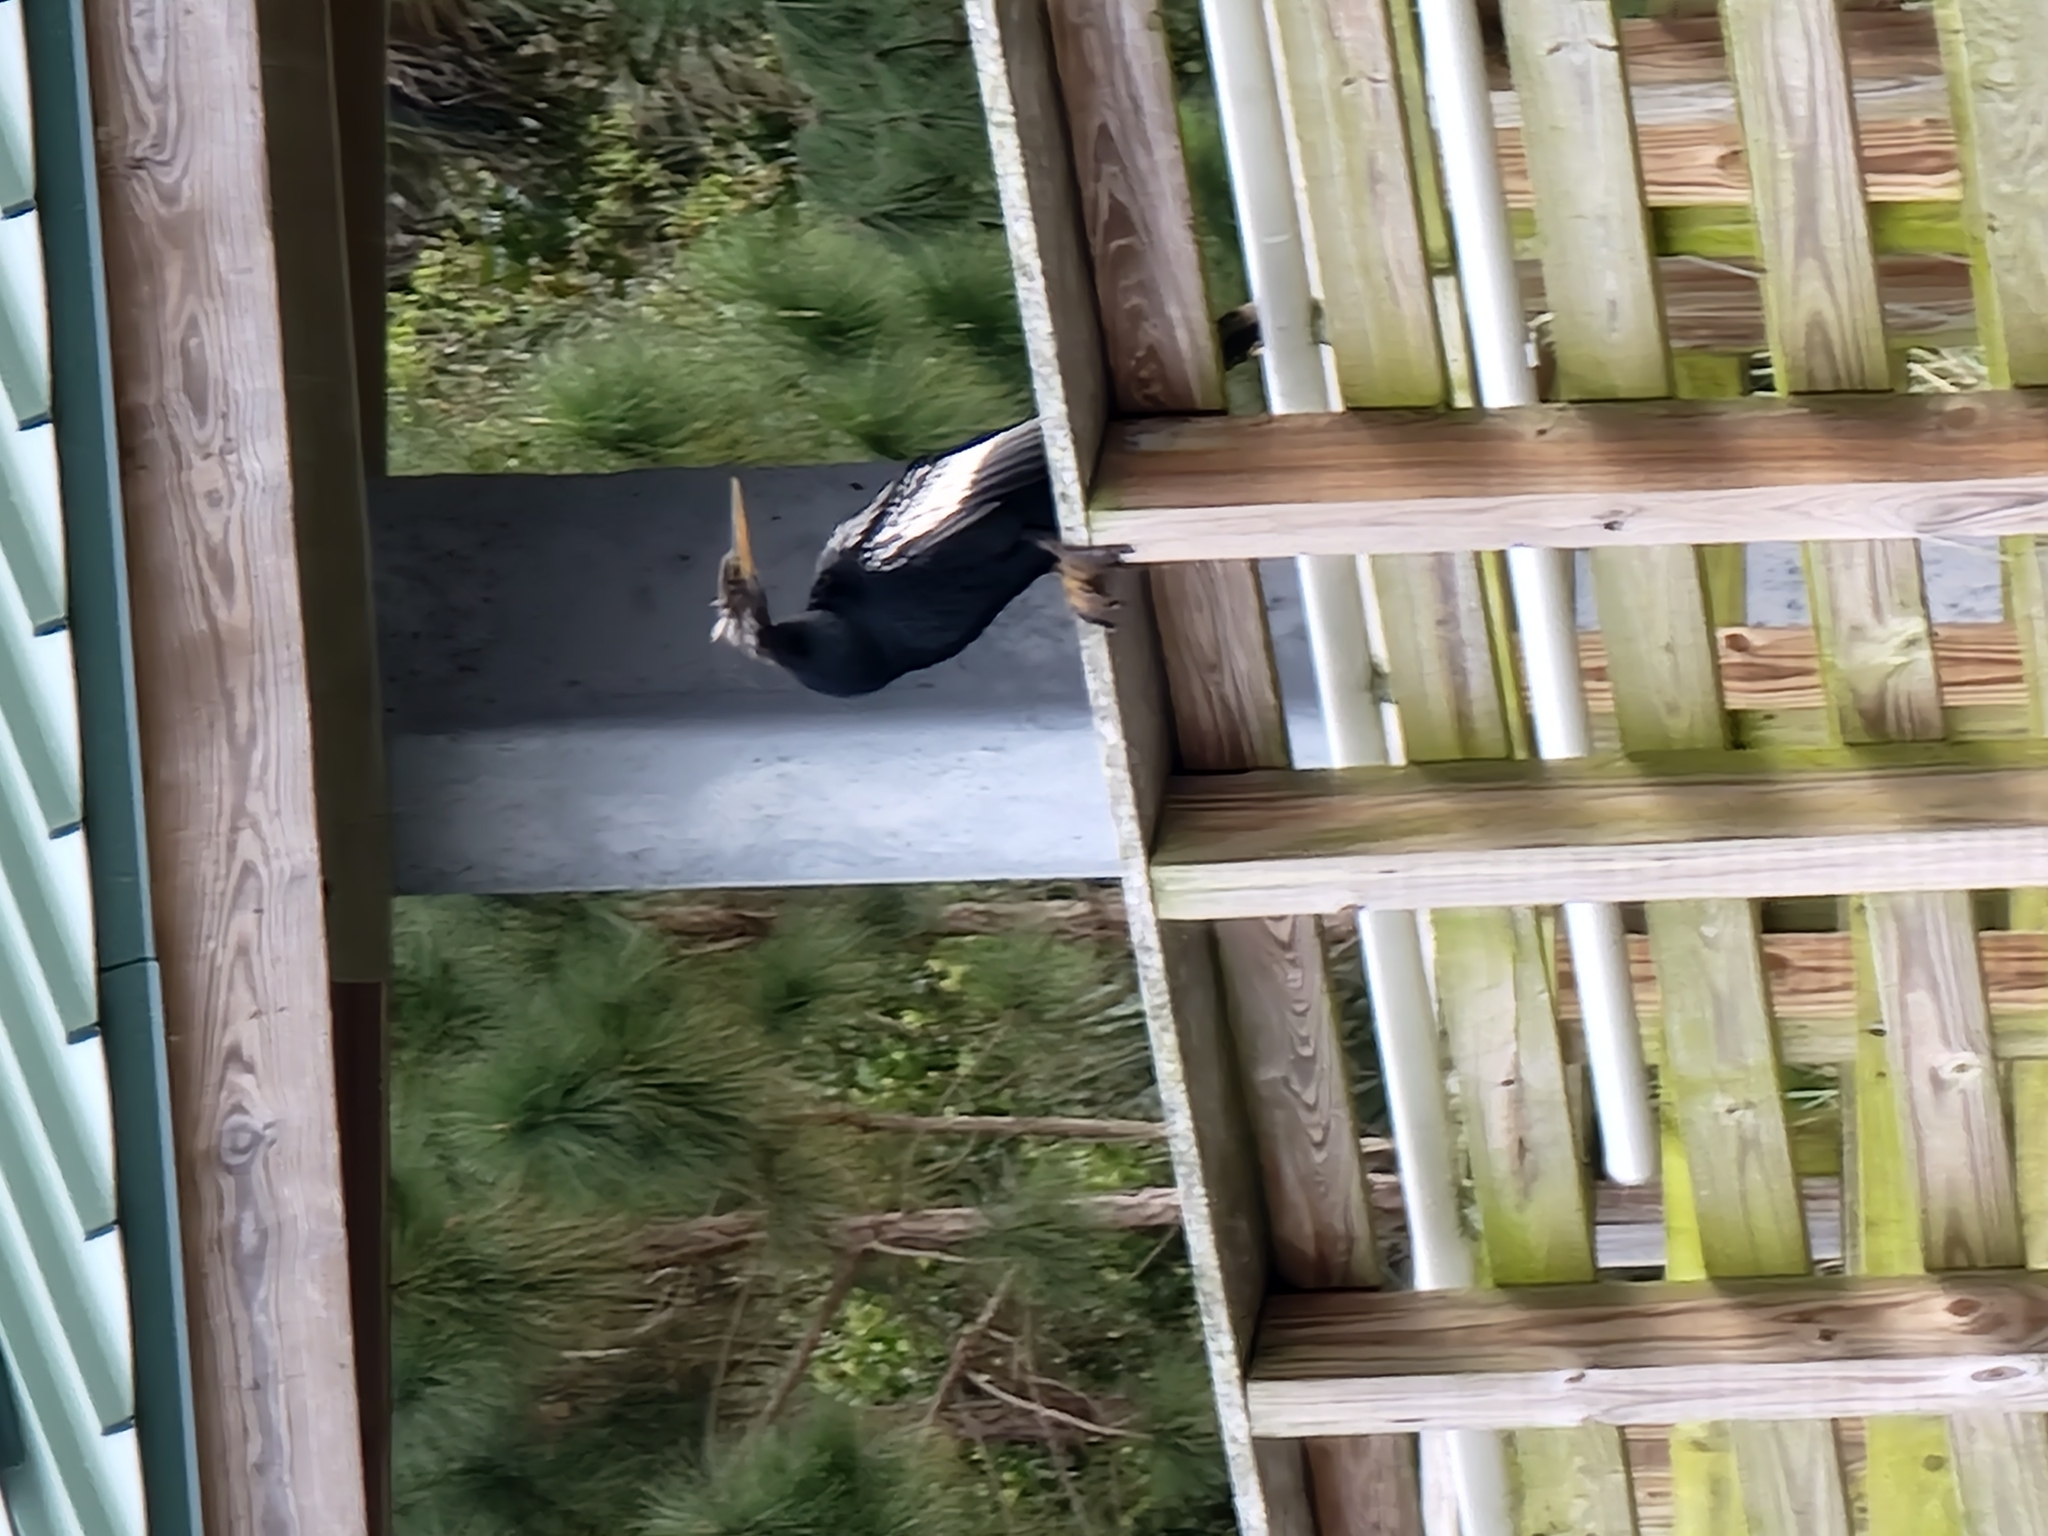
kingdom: Animalia
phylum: Chordata
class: Aves
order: Suliformes
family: Anhingidae
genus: Anhinga
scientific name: Anhinga anhinga
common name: Anhinga
